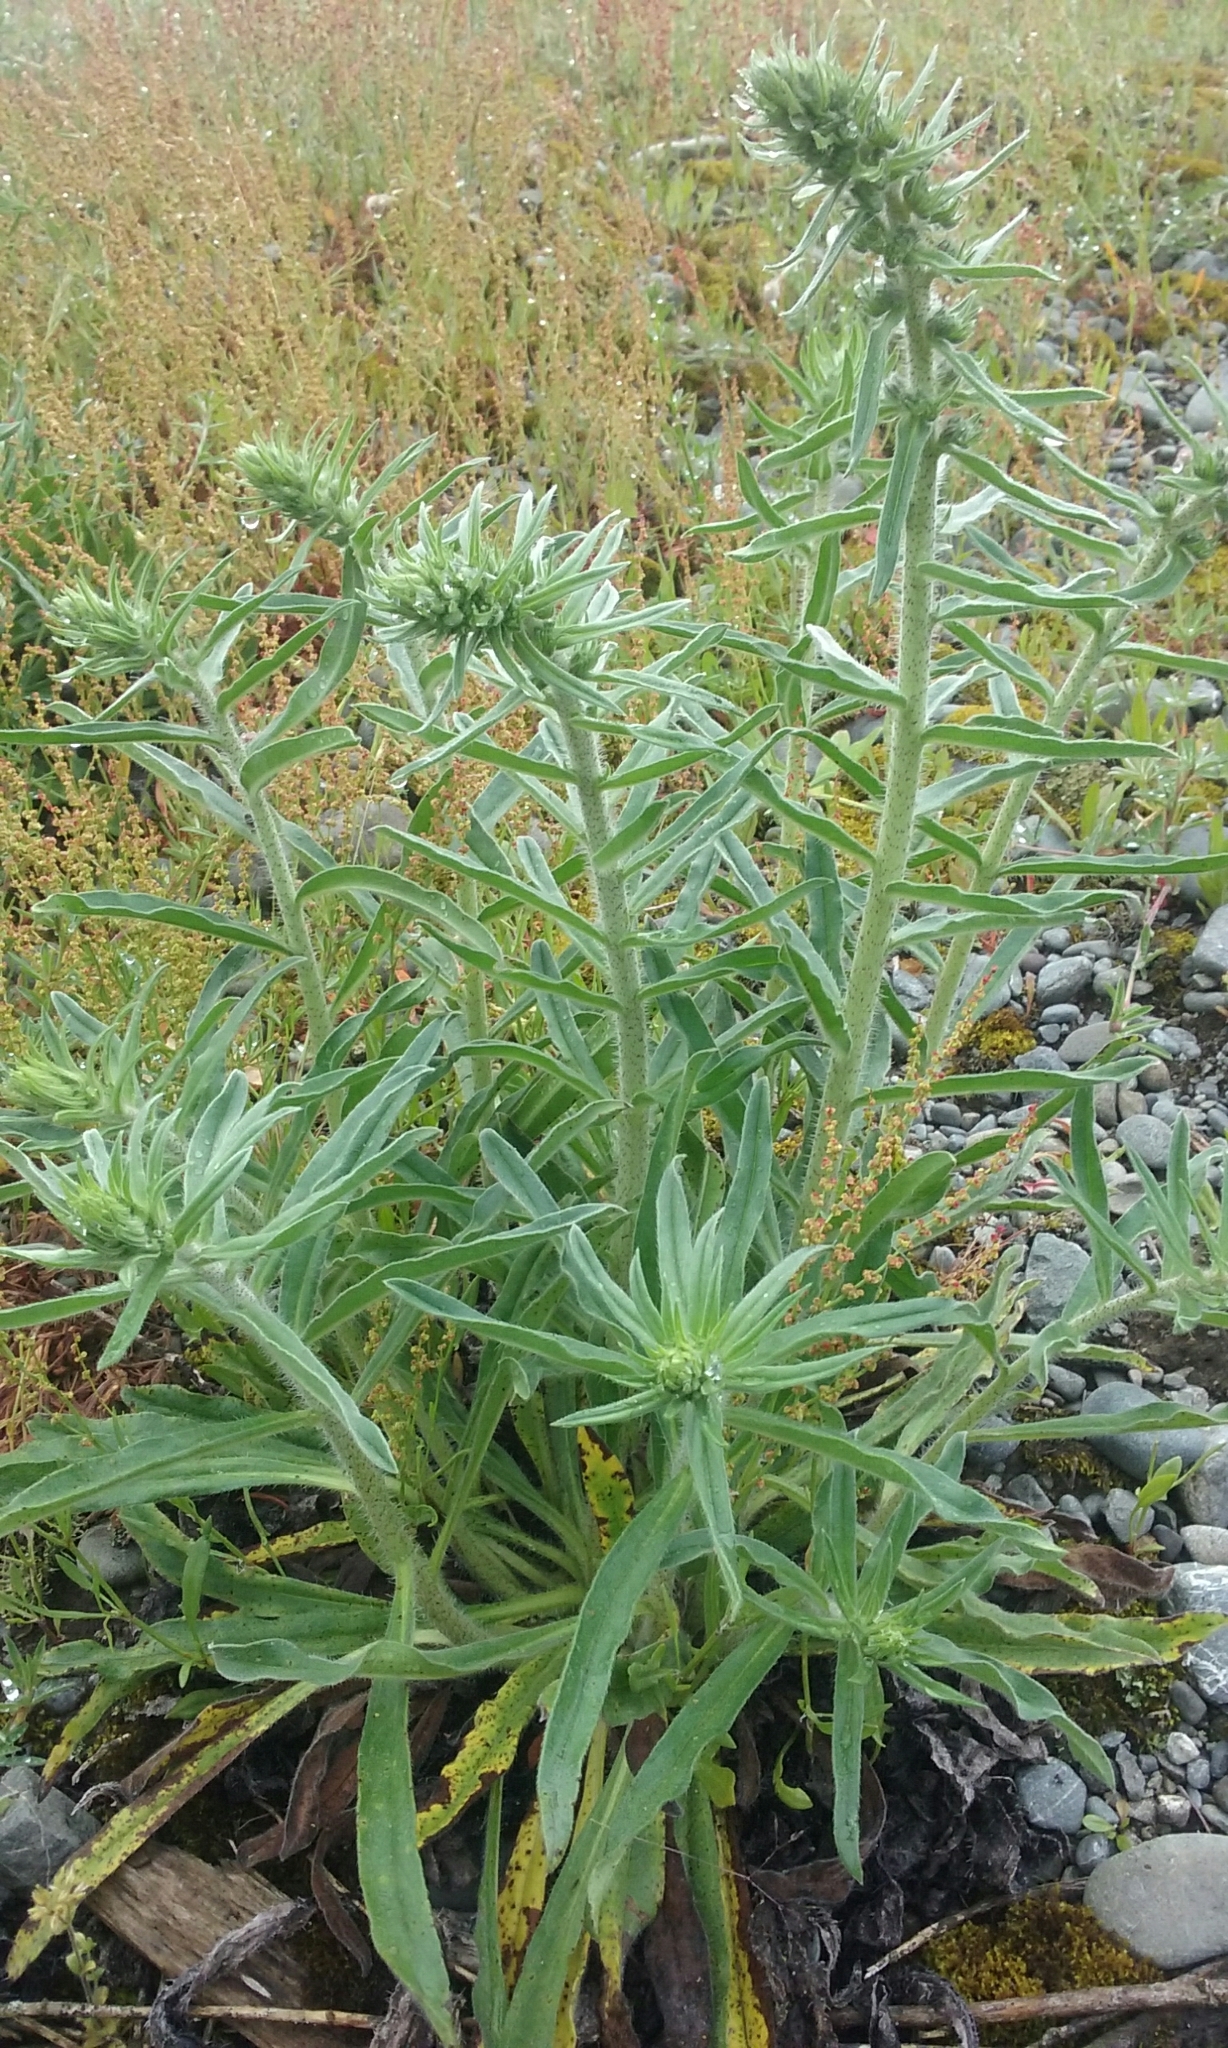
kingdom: Plantae
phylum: Tracheophyta
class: Magnoliopsida
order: Boraginales
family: Boraginaceae
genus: Echium
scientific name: Echium vulgare
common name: Common viper's bugloss
